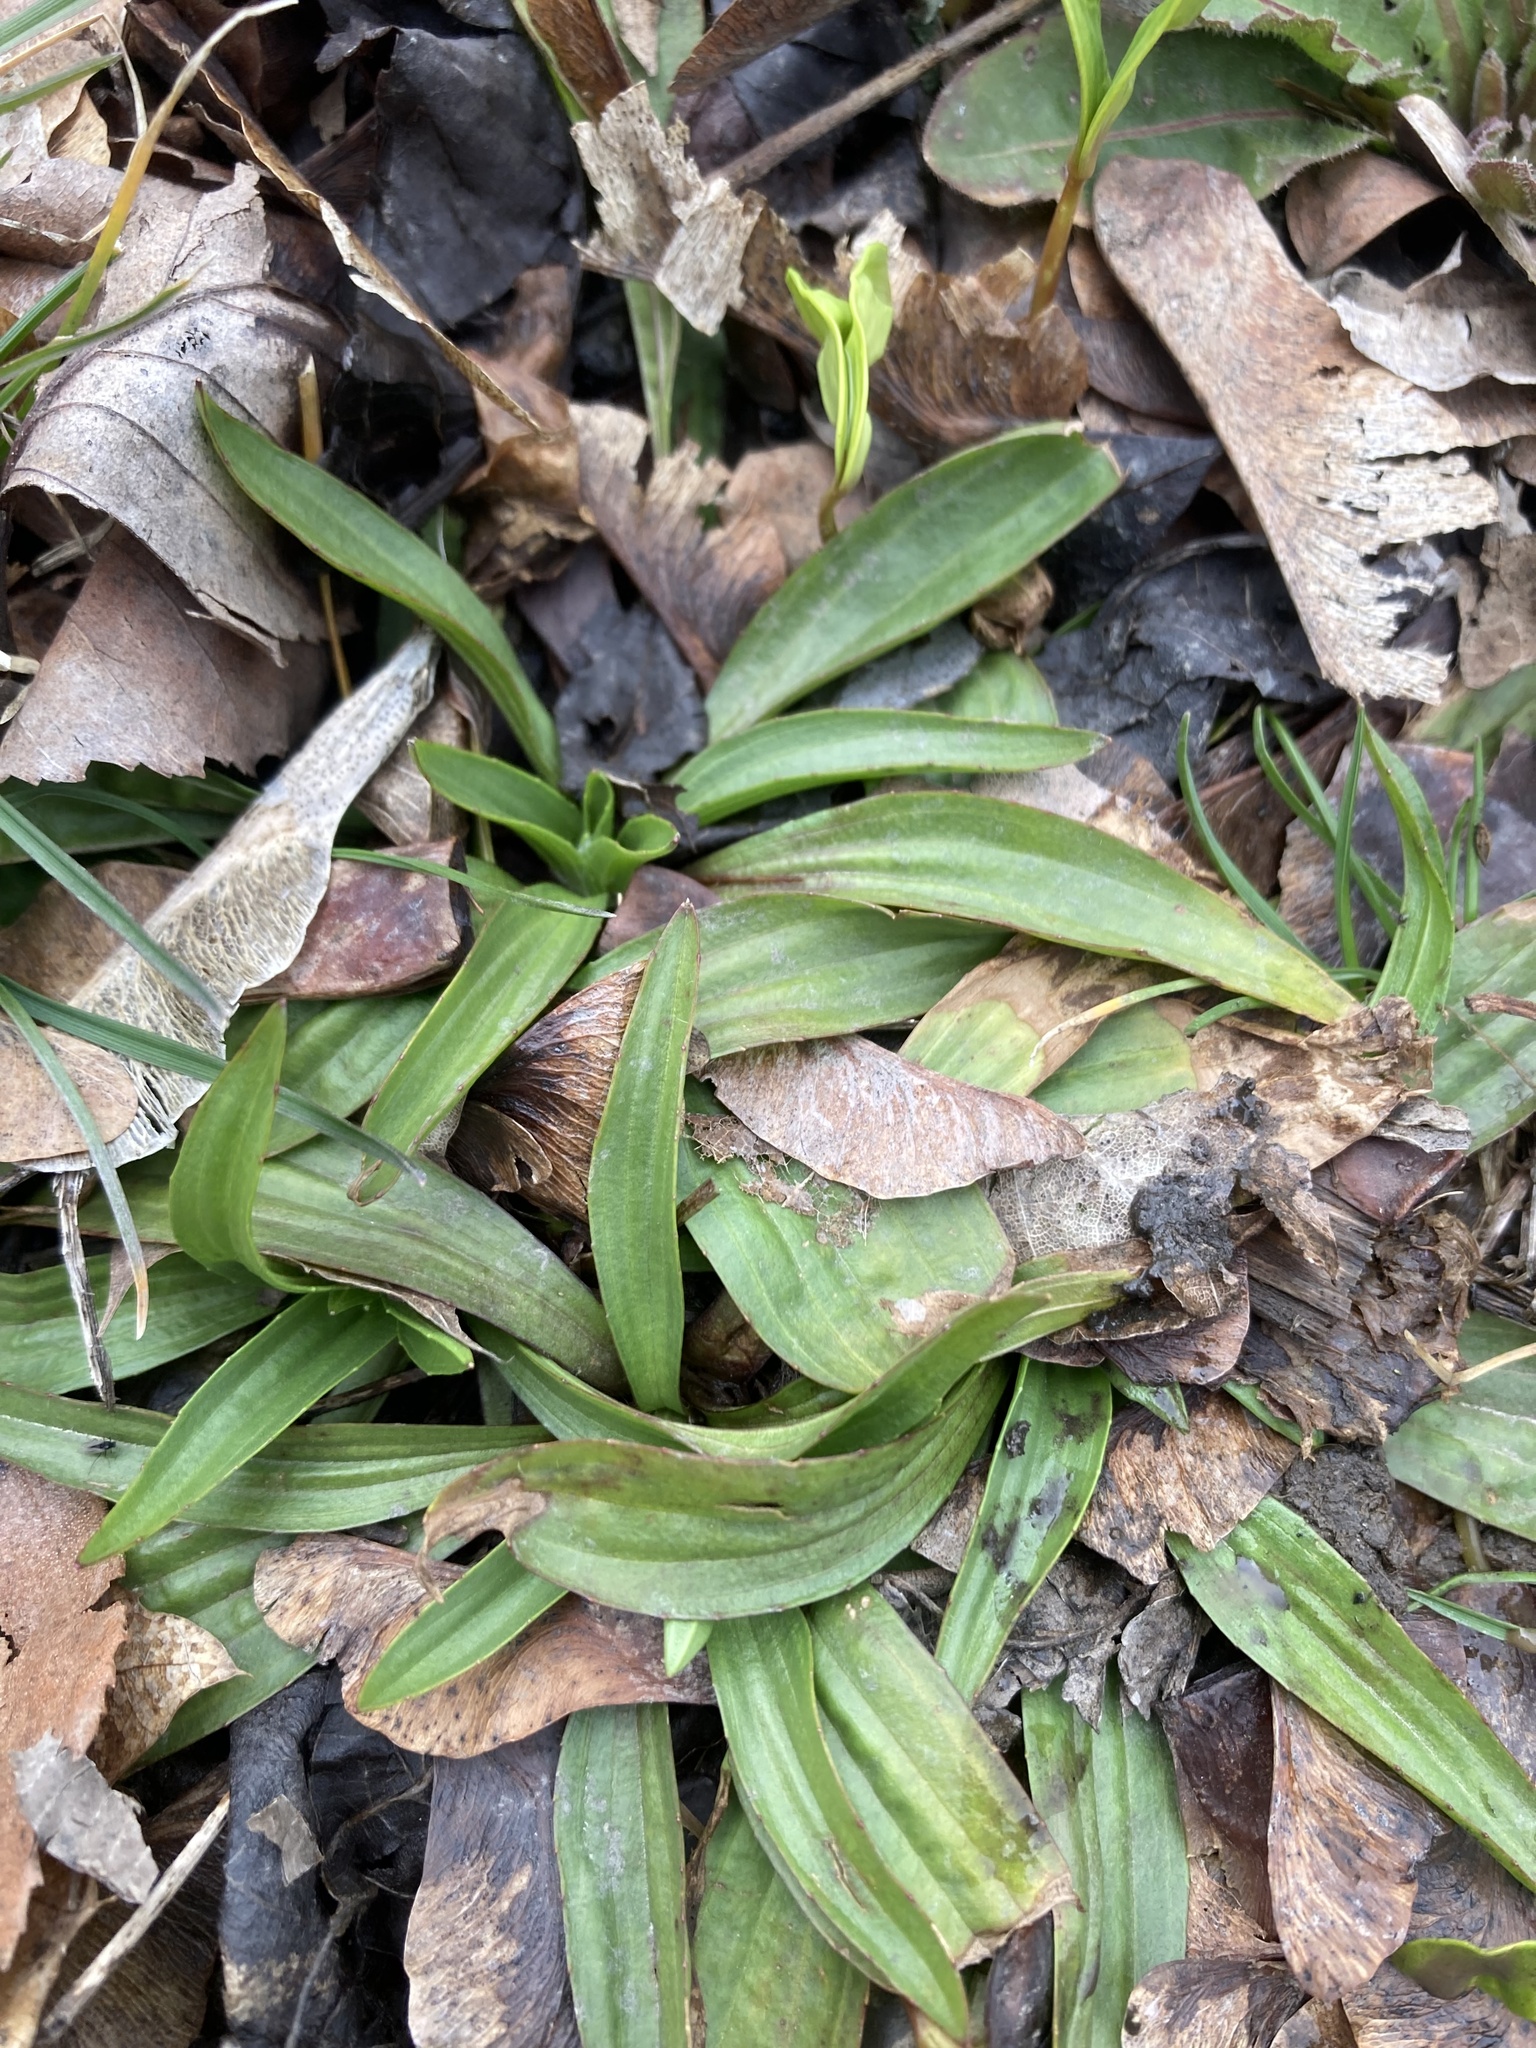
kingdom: Plantae
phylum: Tracheophyta
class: Magnoliopsida
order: Lamiales
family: Plantaginaceae
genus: Plantago
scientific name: Plantago lanceolata
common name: Ribwort plantain
